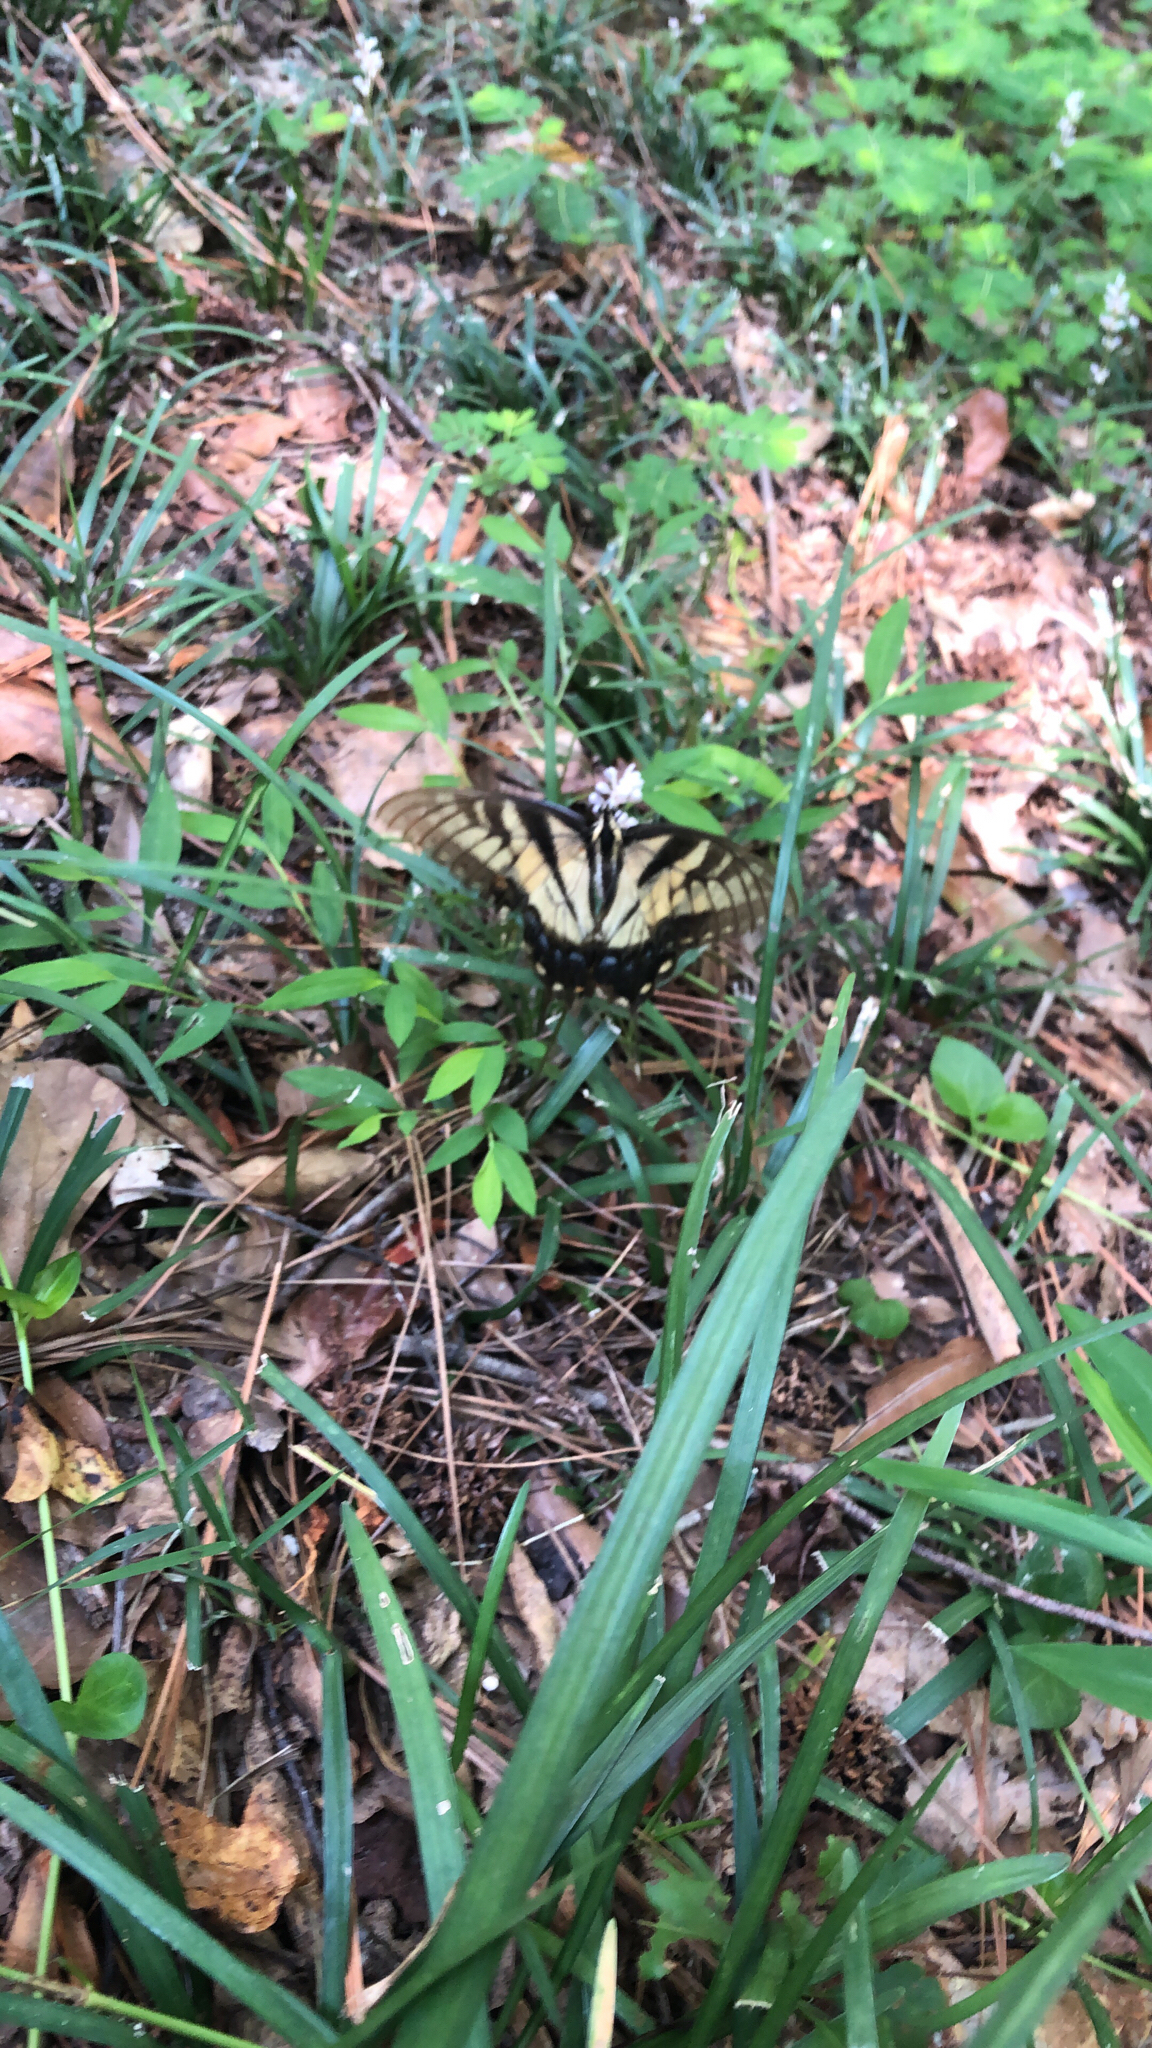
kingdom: Animalia
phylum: Arthropoda
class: Insecta
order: Lepidoptera
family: Papilionidae
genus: Papilio
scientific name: Papilio glaucus
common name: Tiger swallowtail
